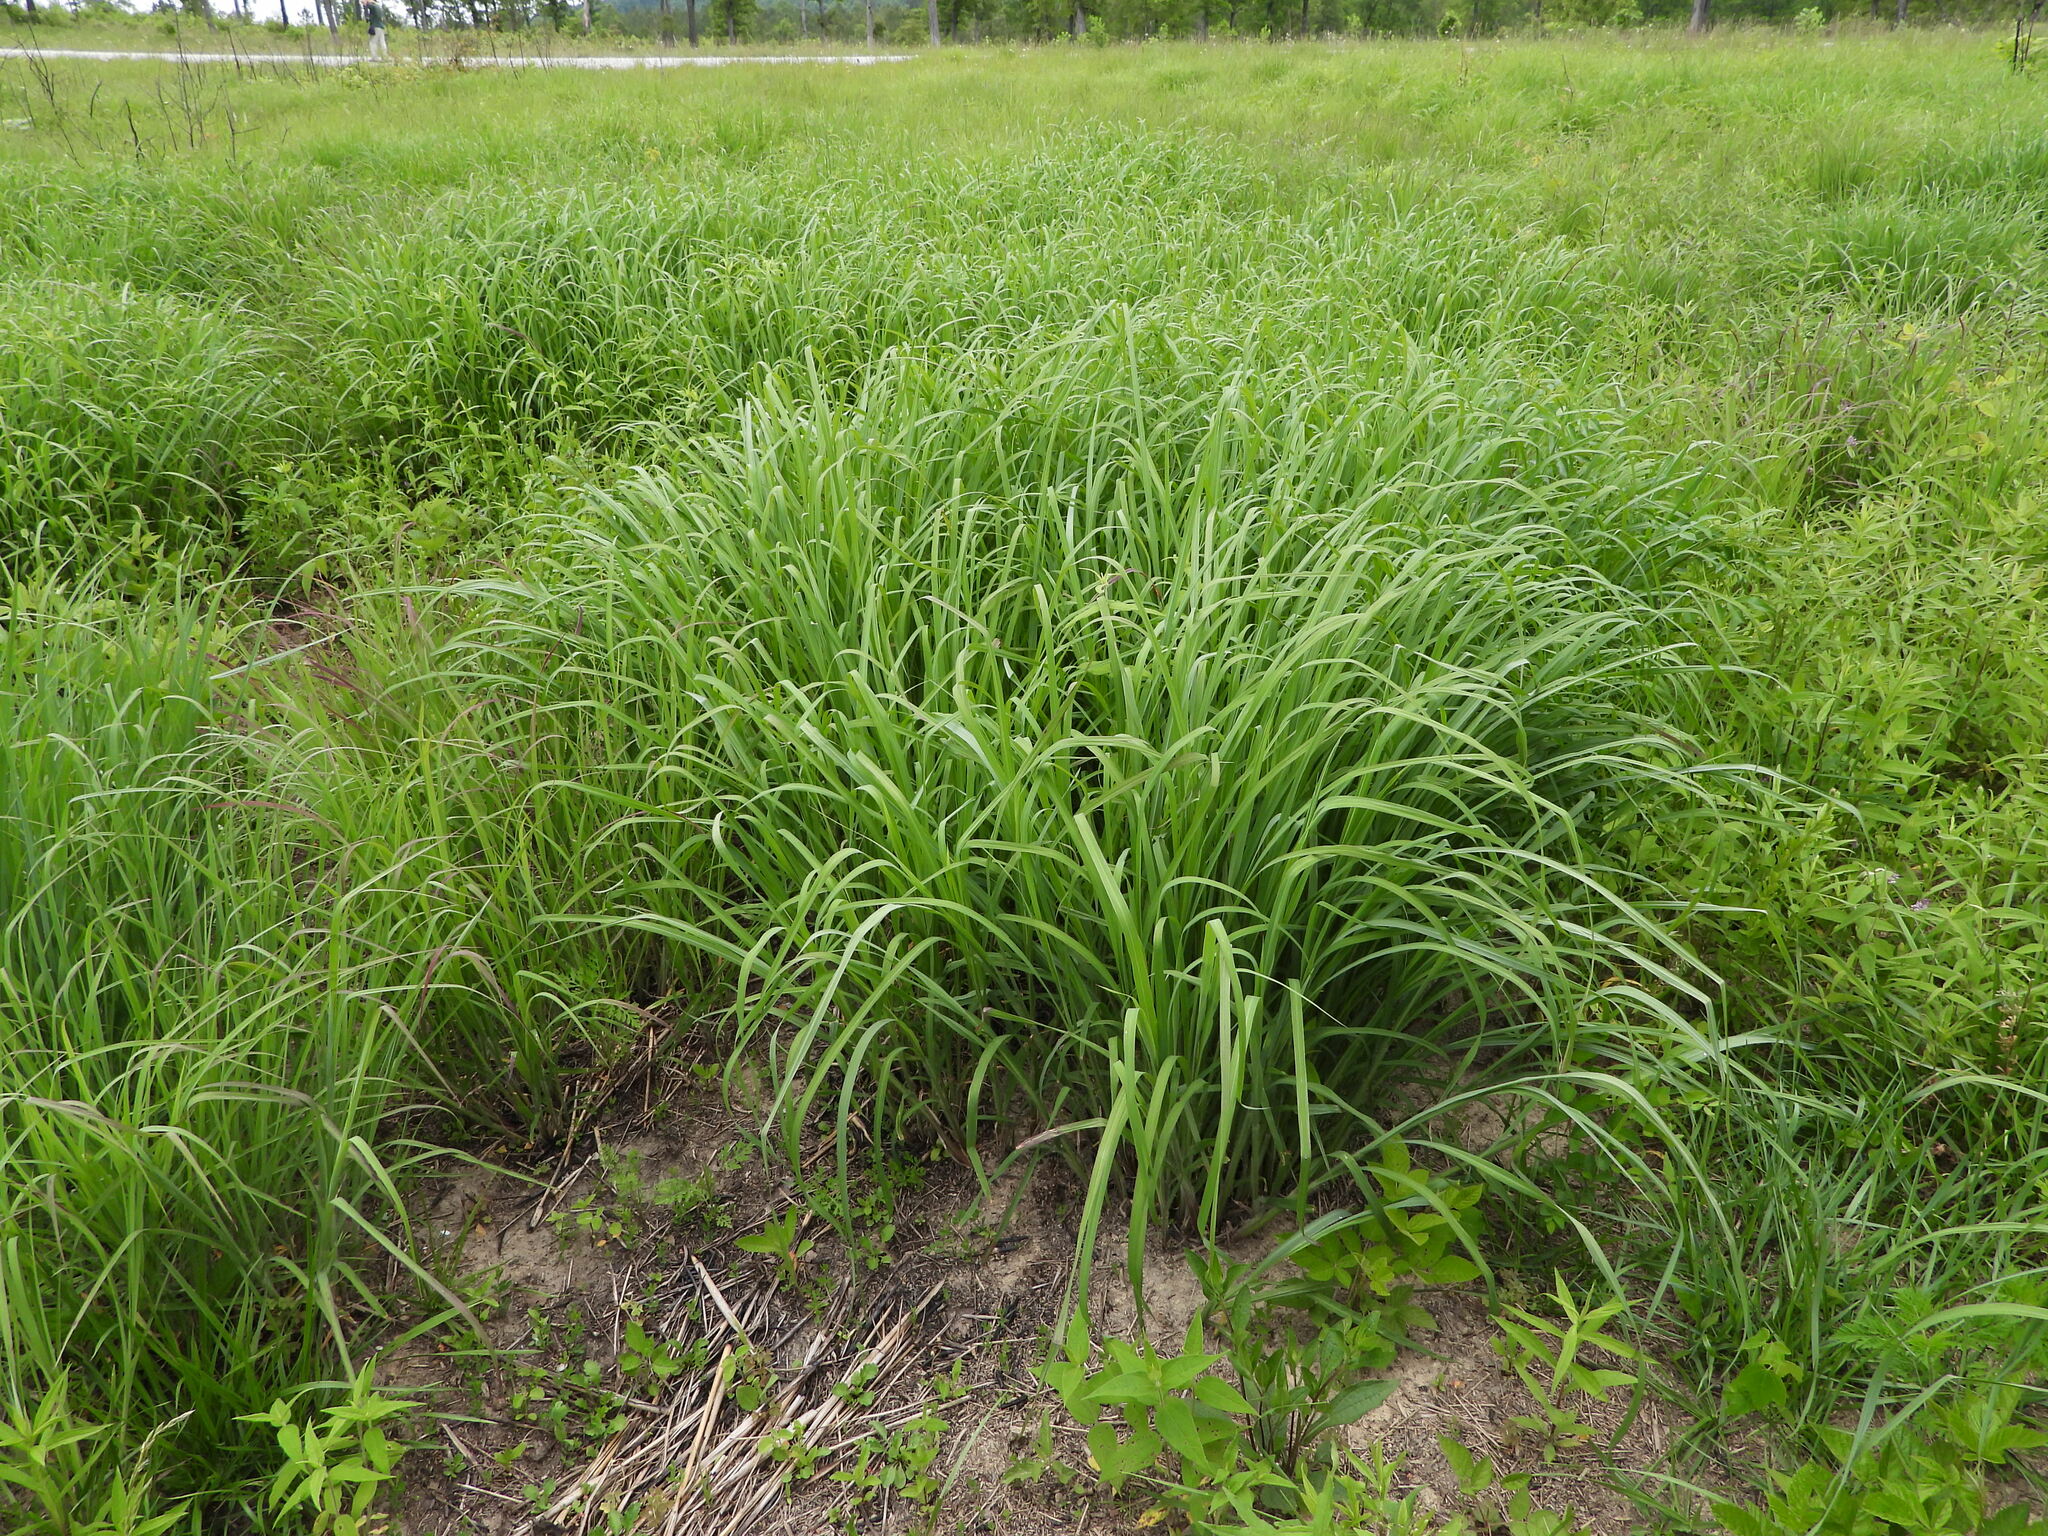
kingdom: Plantae
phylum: Tracheophyta
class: Liliopsida
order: Poales
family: Poaceae
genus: Andropogon
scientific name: Andropogon gerardi
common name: Big bluestem
